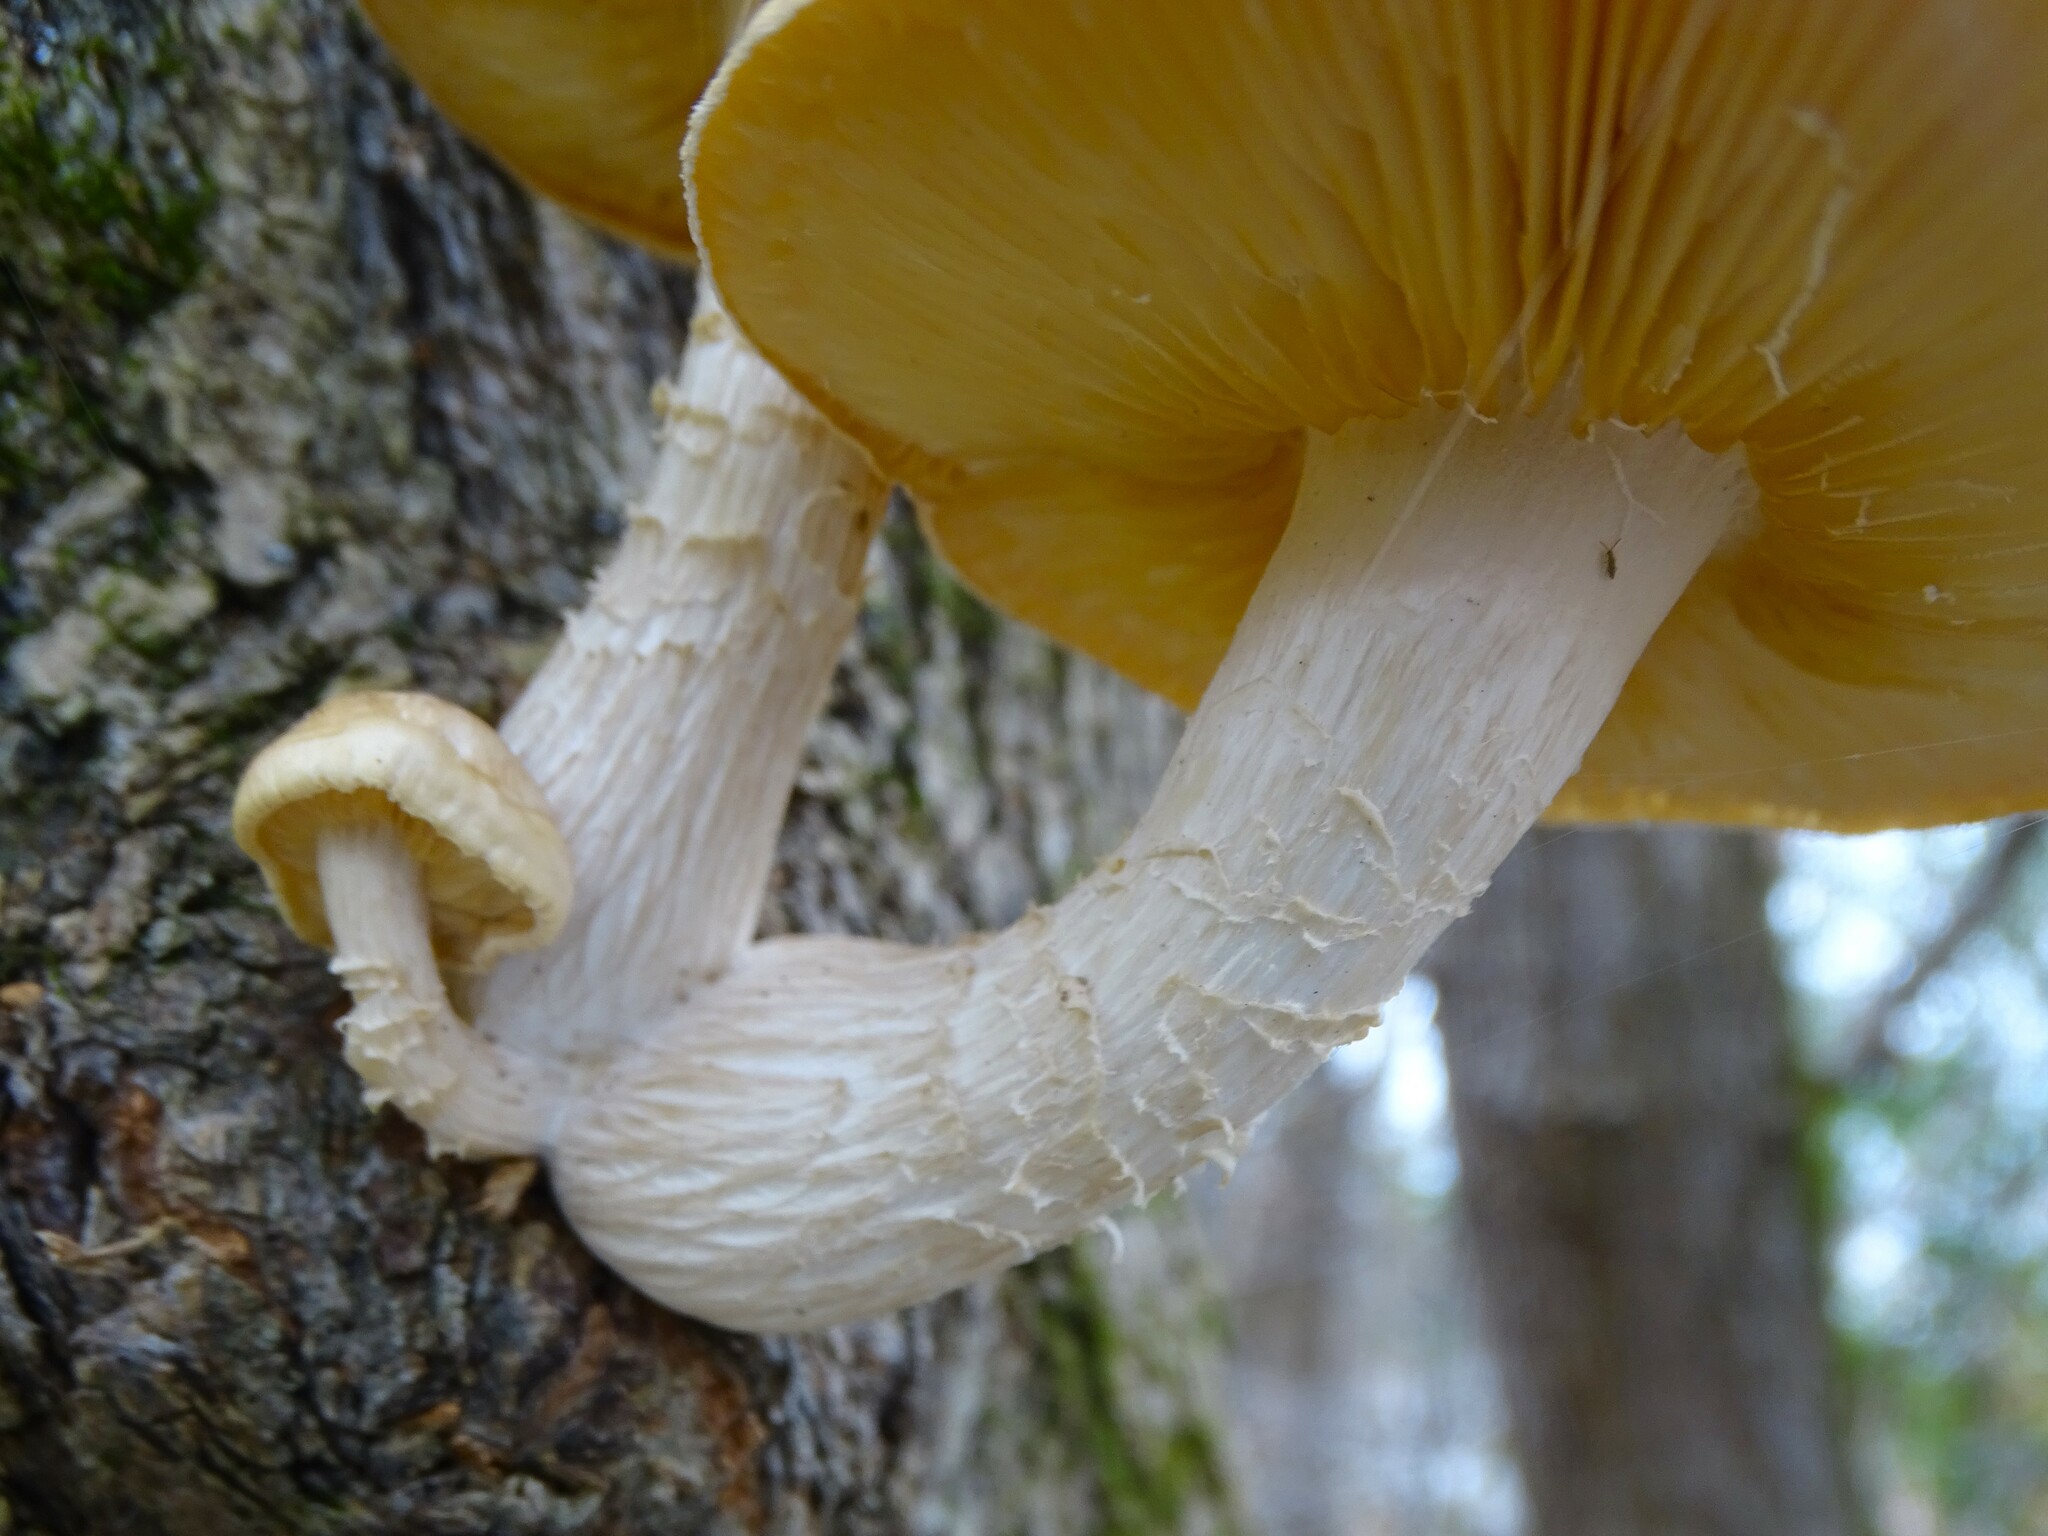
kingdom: Fungi
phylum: Basidiomycota
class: Agaricomycetes
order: Agaricales
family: Lyophyllaceae
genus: Hypsizygus
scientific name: Hypsizygus ulmarius
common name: Elm leech
